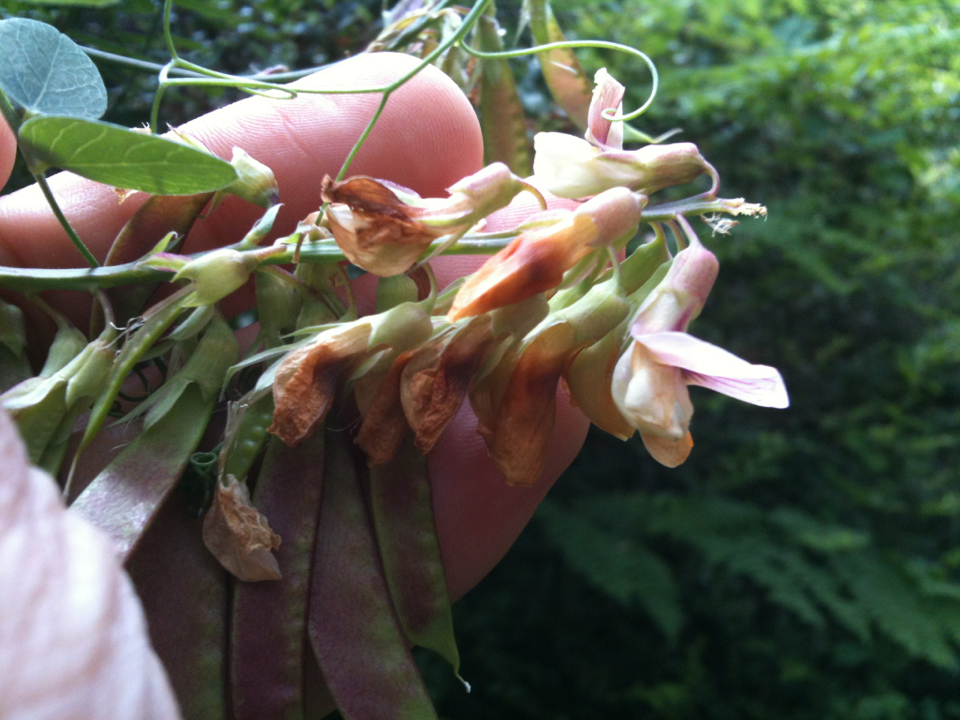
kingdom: Plantae
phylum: Tracheophyta
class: Magnoliopsida
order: Fabales
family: Fabaceae
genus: Lathyrus
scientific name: Lathyrus vestitus
